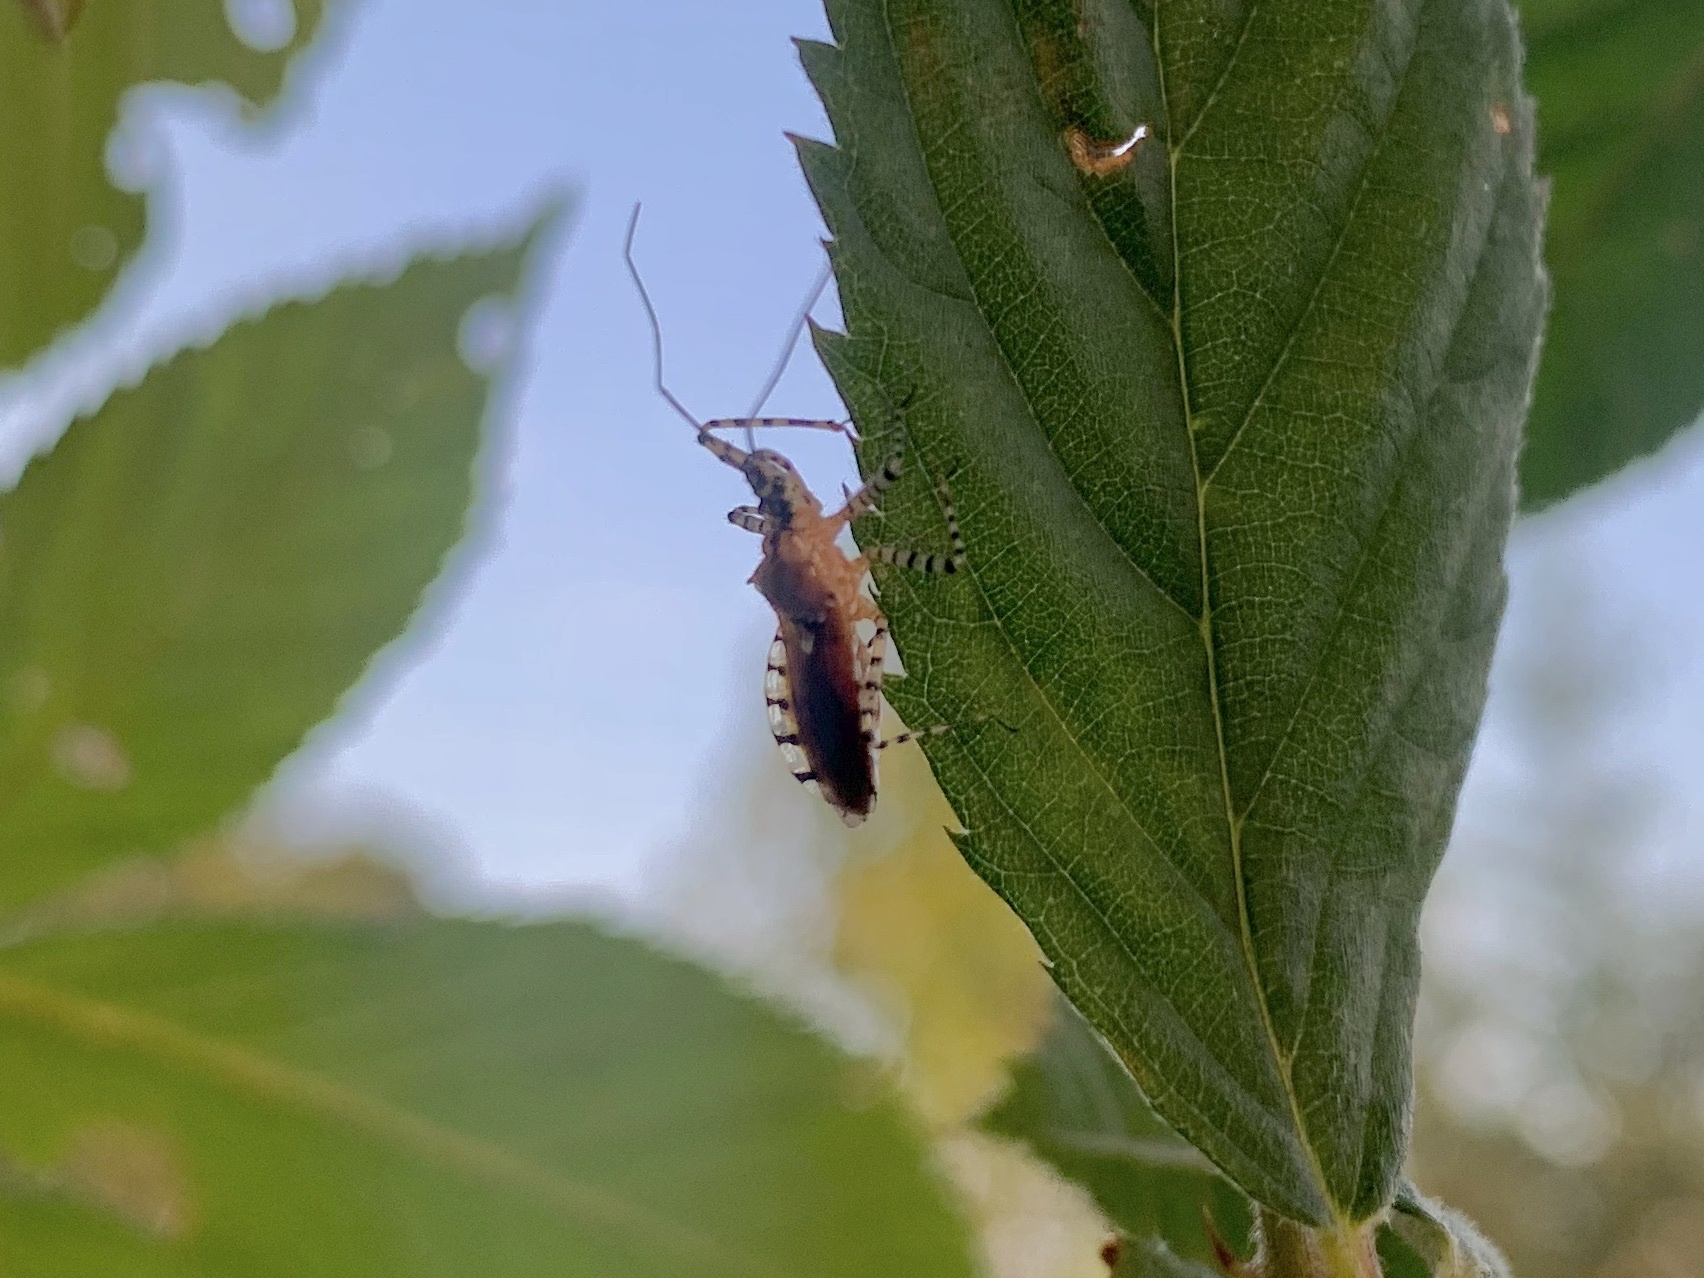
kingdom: Animalia
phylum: Arthropoda
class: Insecta
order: Hemiptera
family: Reduviidae
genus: Pselliopus
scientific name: Pselliopus cinctus
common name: Ringed assassin bug
